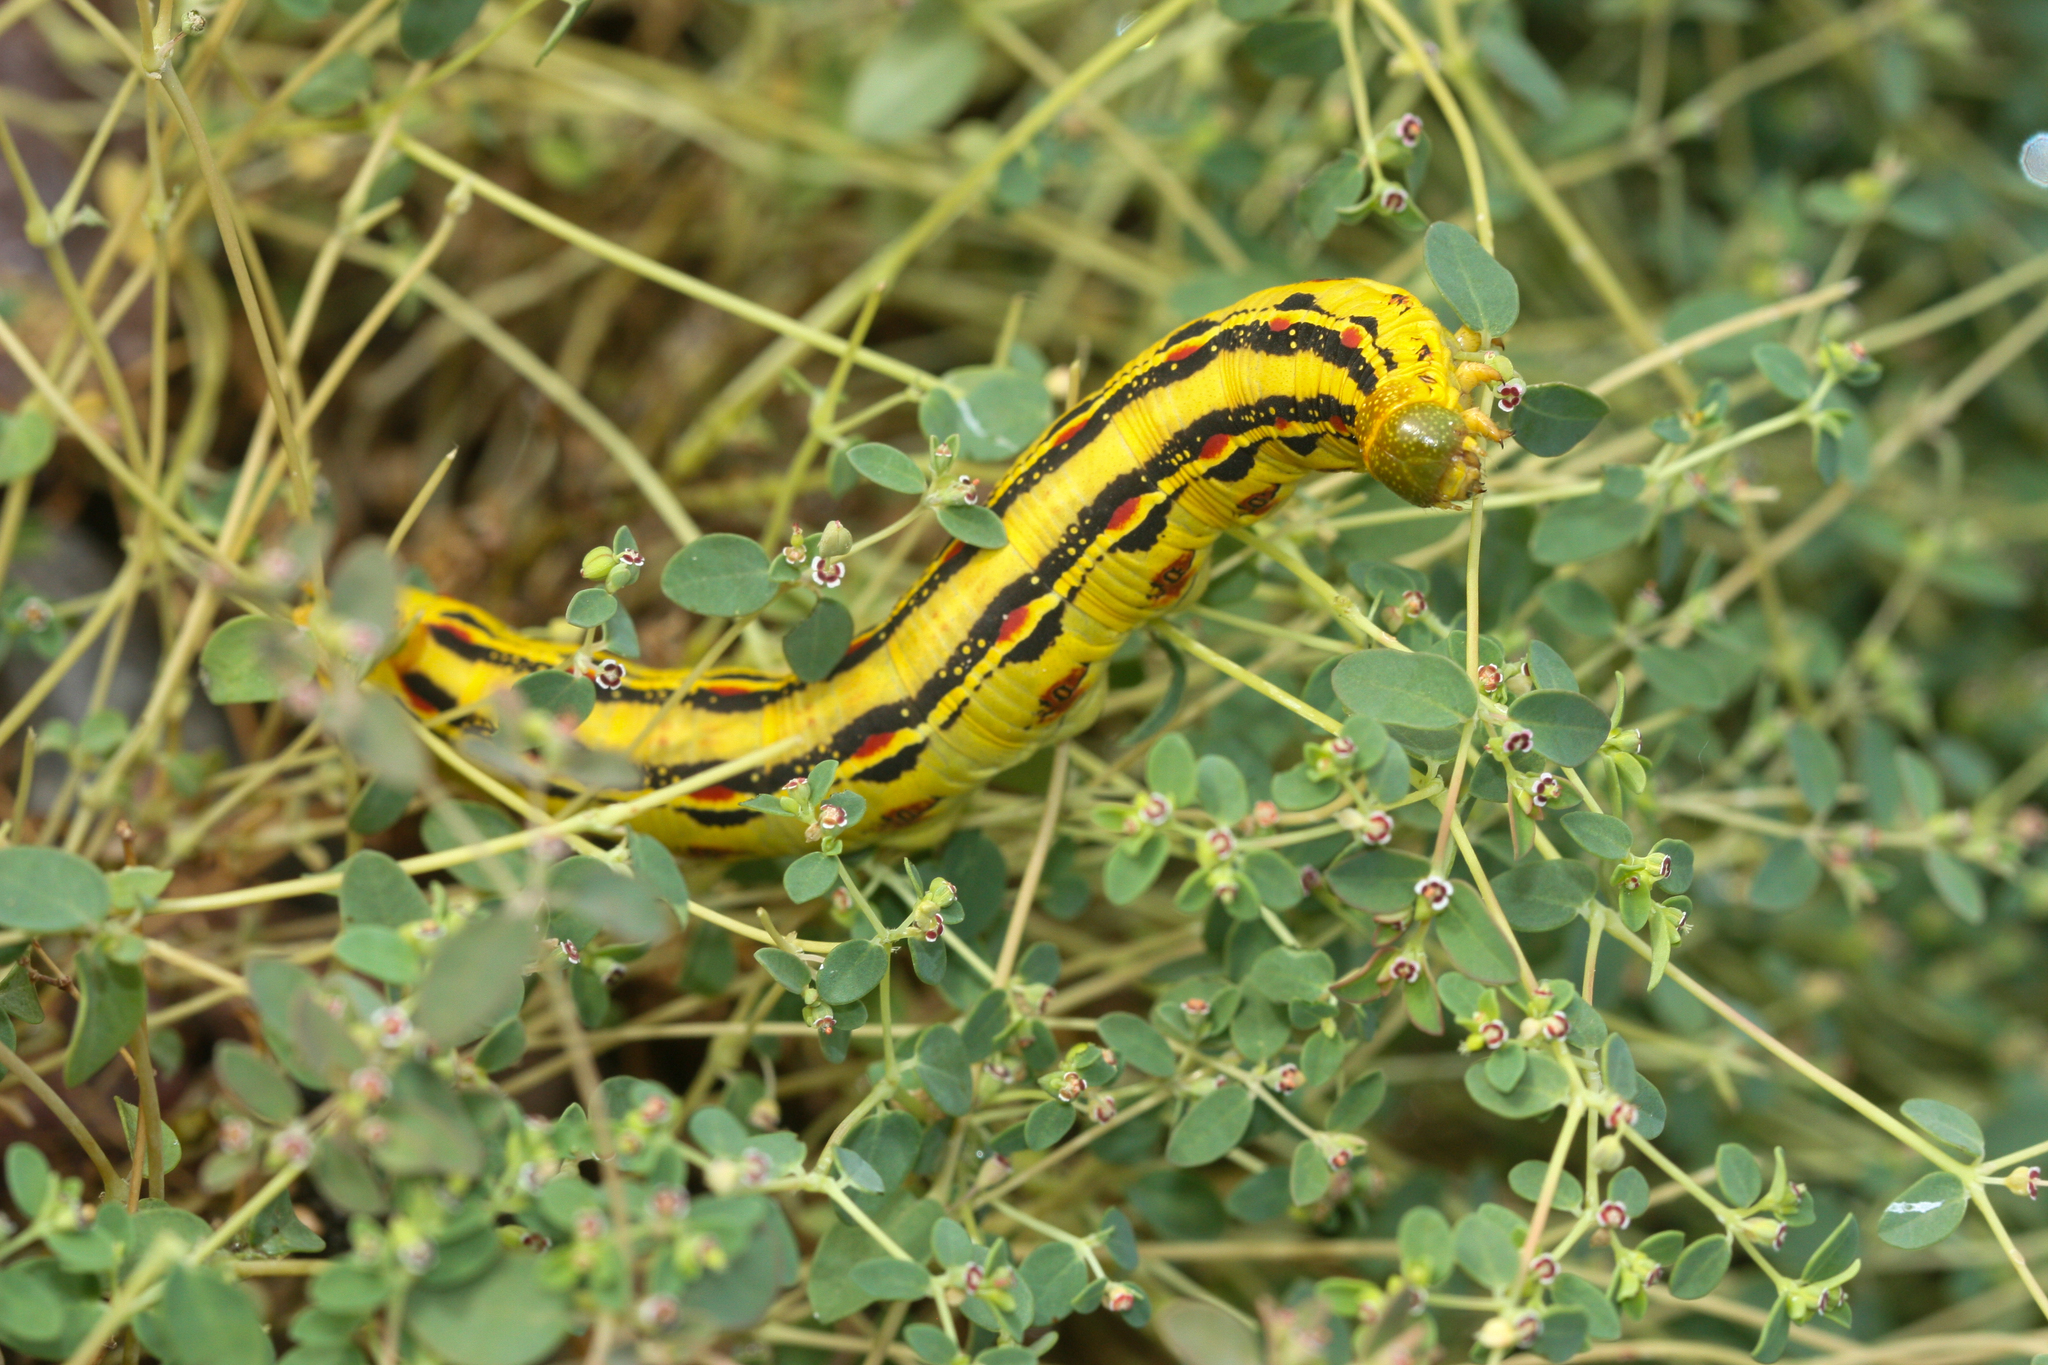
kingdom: Animalia
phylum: Arthropoda
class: Insecta
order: Lepidoptera
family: Sphingidae
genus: Hyles
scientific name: Hyles lineata
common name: White-lined sphinx
